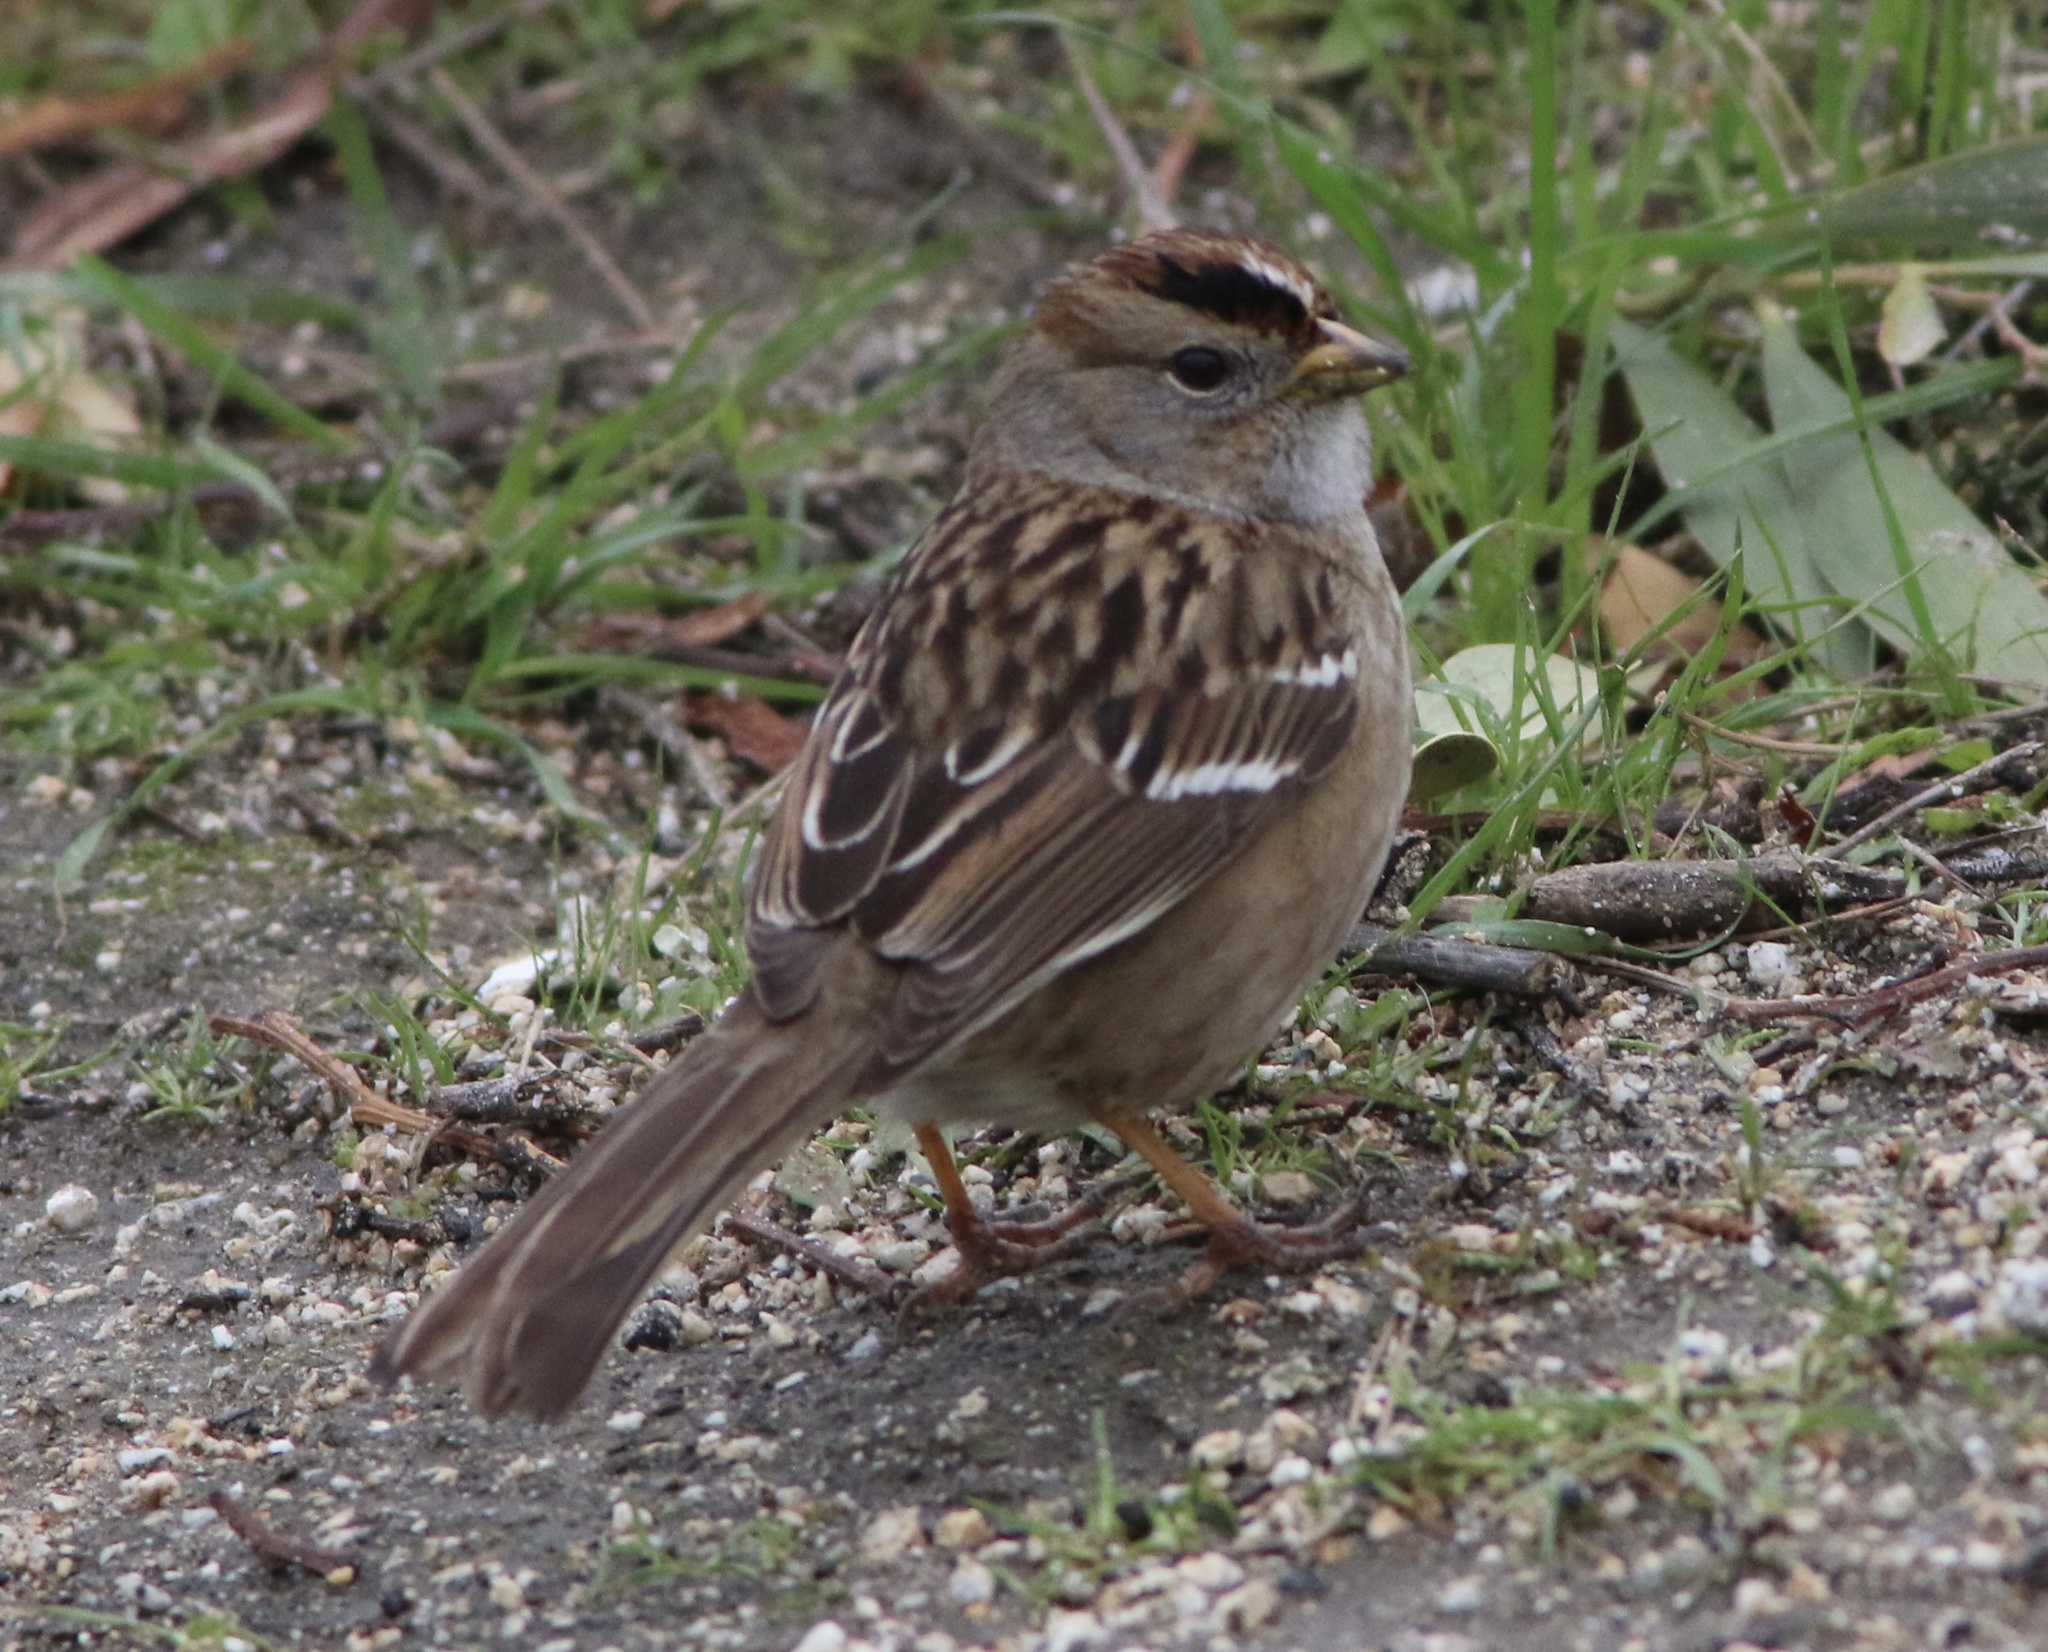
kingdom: Animalia
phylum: Chordata
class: Aves
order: Passeriformes
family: Passerellidae
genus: Zonotrichia
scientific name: Zonotrichia leucophrys
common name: White-crowned sparrow
